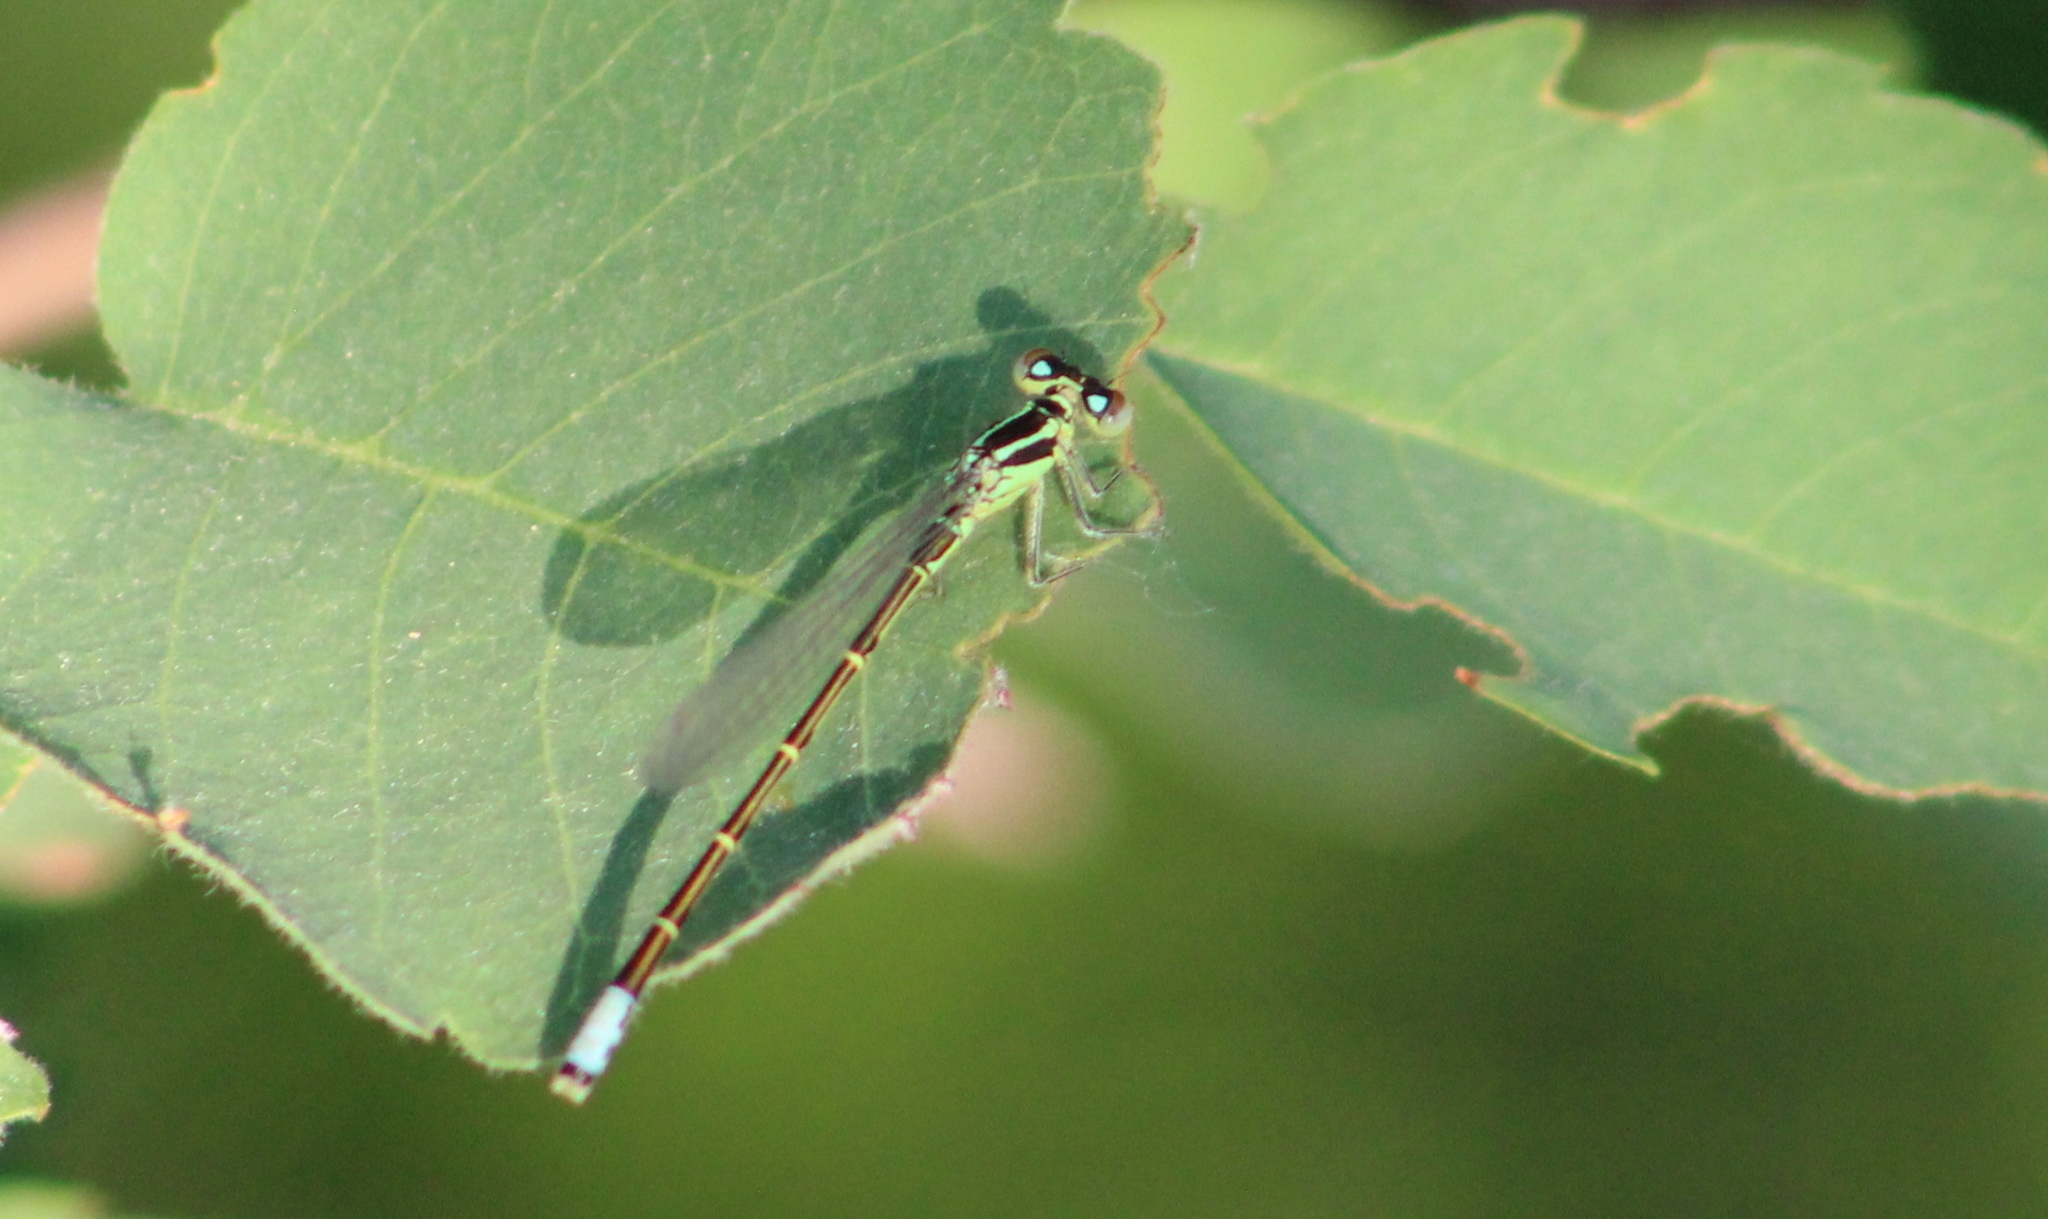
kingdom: Animalia
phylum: Arthropoda
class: Insecta
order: Odonata
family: Coenagrionidae
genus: Ischnura
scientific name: Ischnura perparva
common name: Western forktail
